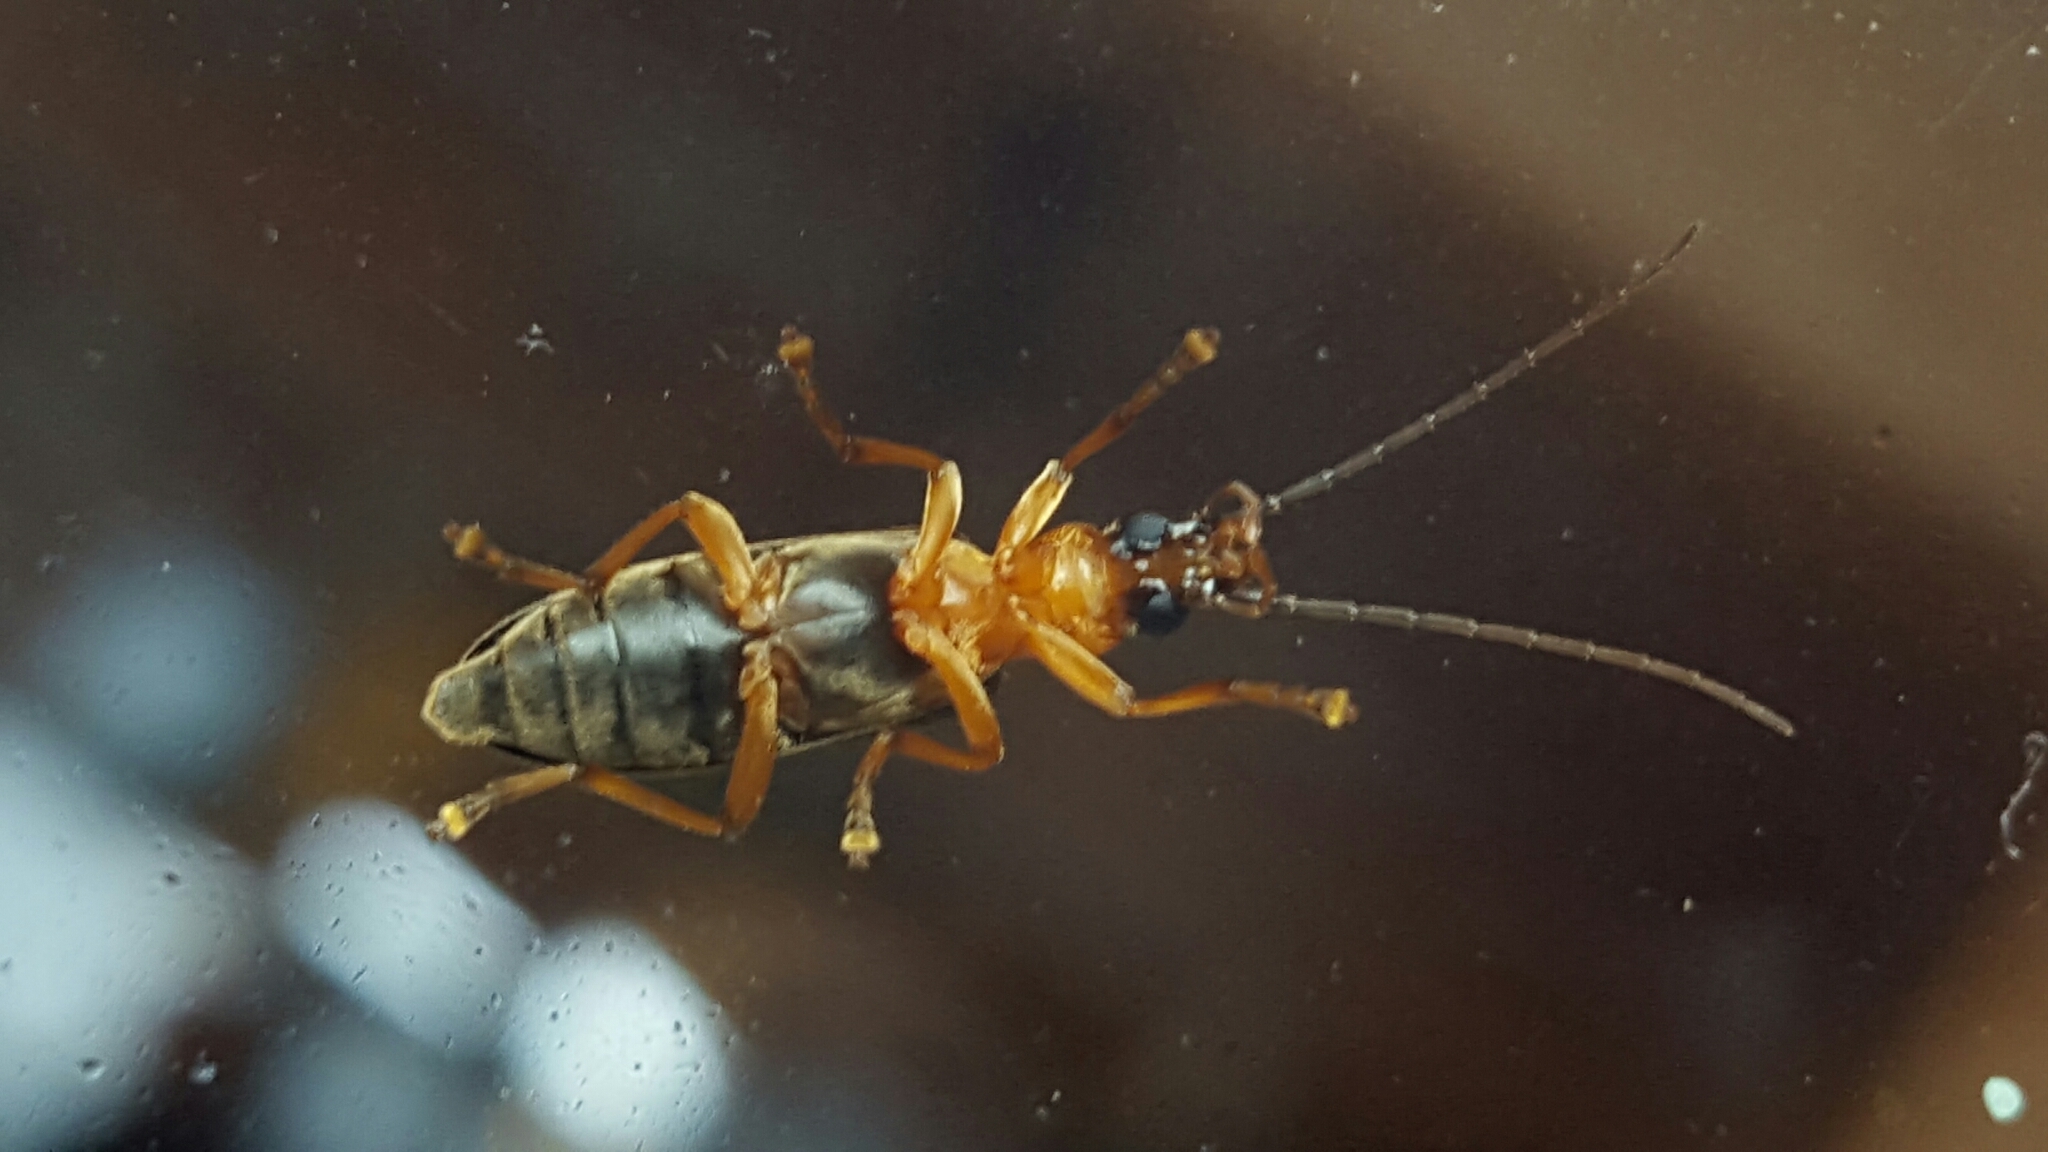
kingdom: Animalia
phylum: Arthropoda
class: Insecta
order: Coleoptera
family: Oedemeridae
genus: Ananca
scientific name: Ananca bicolor
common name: Red-black false blister-beetle
